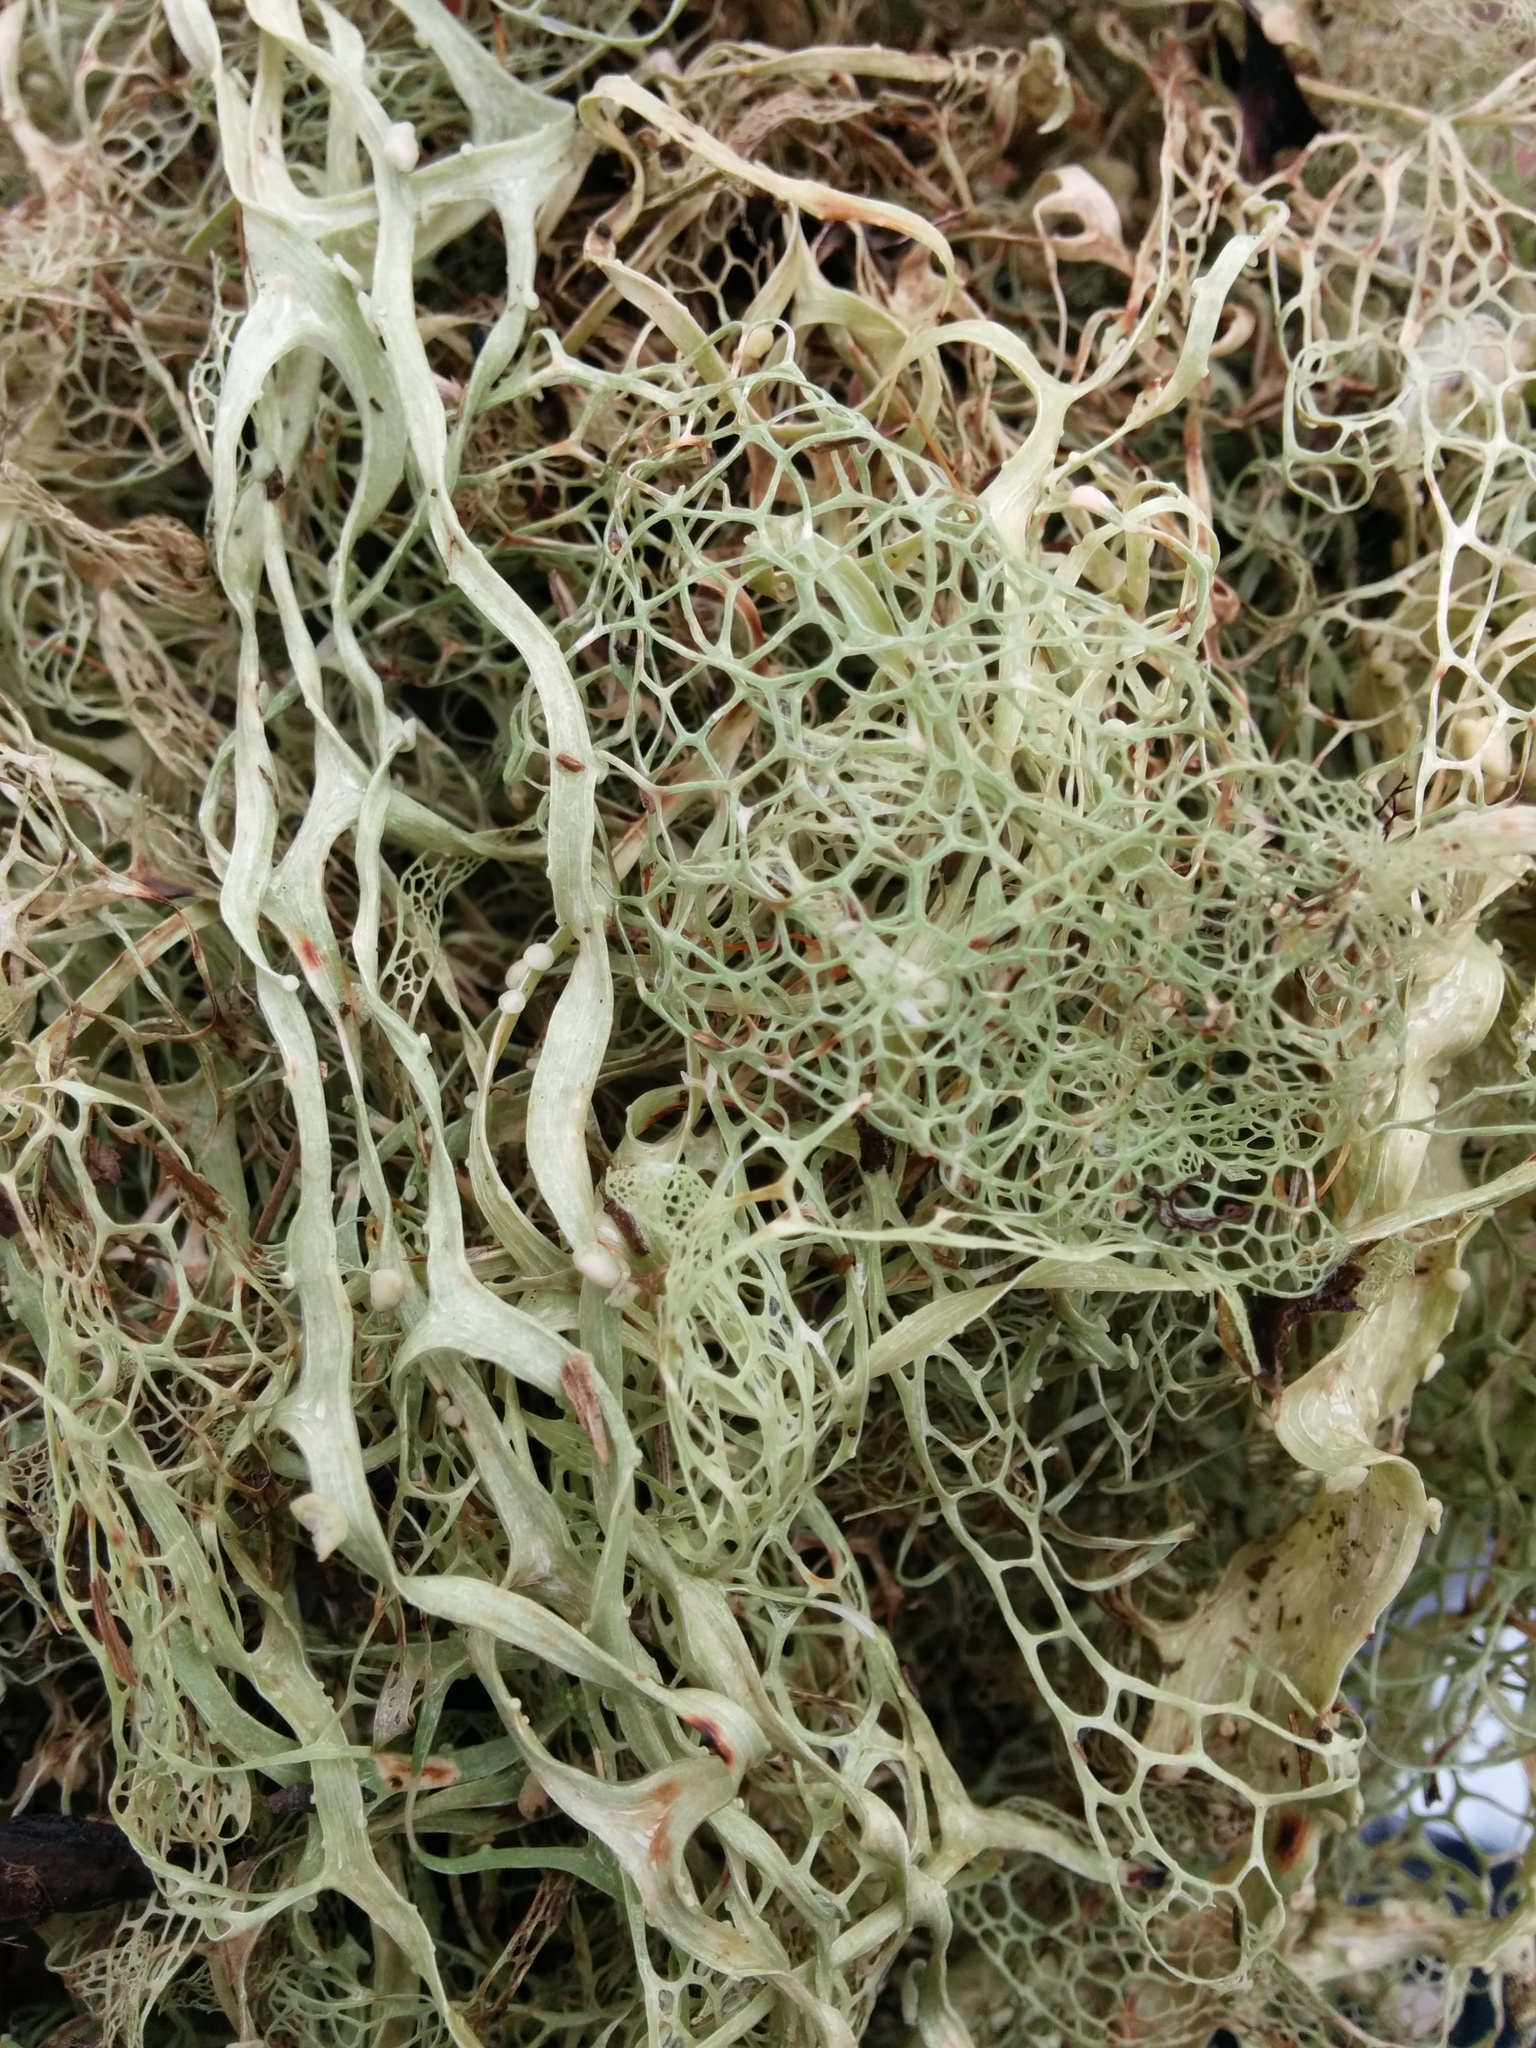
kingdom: Fungi
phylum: Ascomycota
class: Lecanoromycetes
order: Lecanorales
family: Ramalinaceae
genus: Ramalina
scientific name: Ramalina menziesii
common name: Lace lichen
